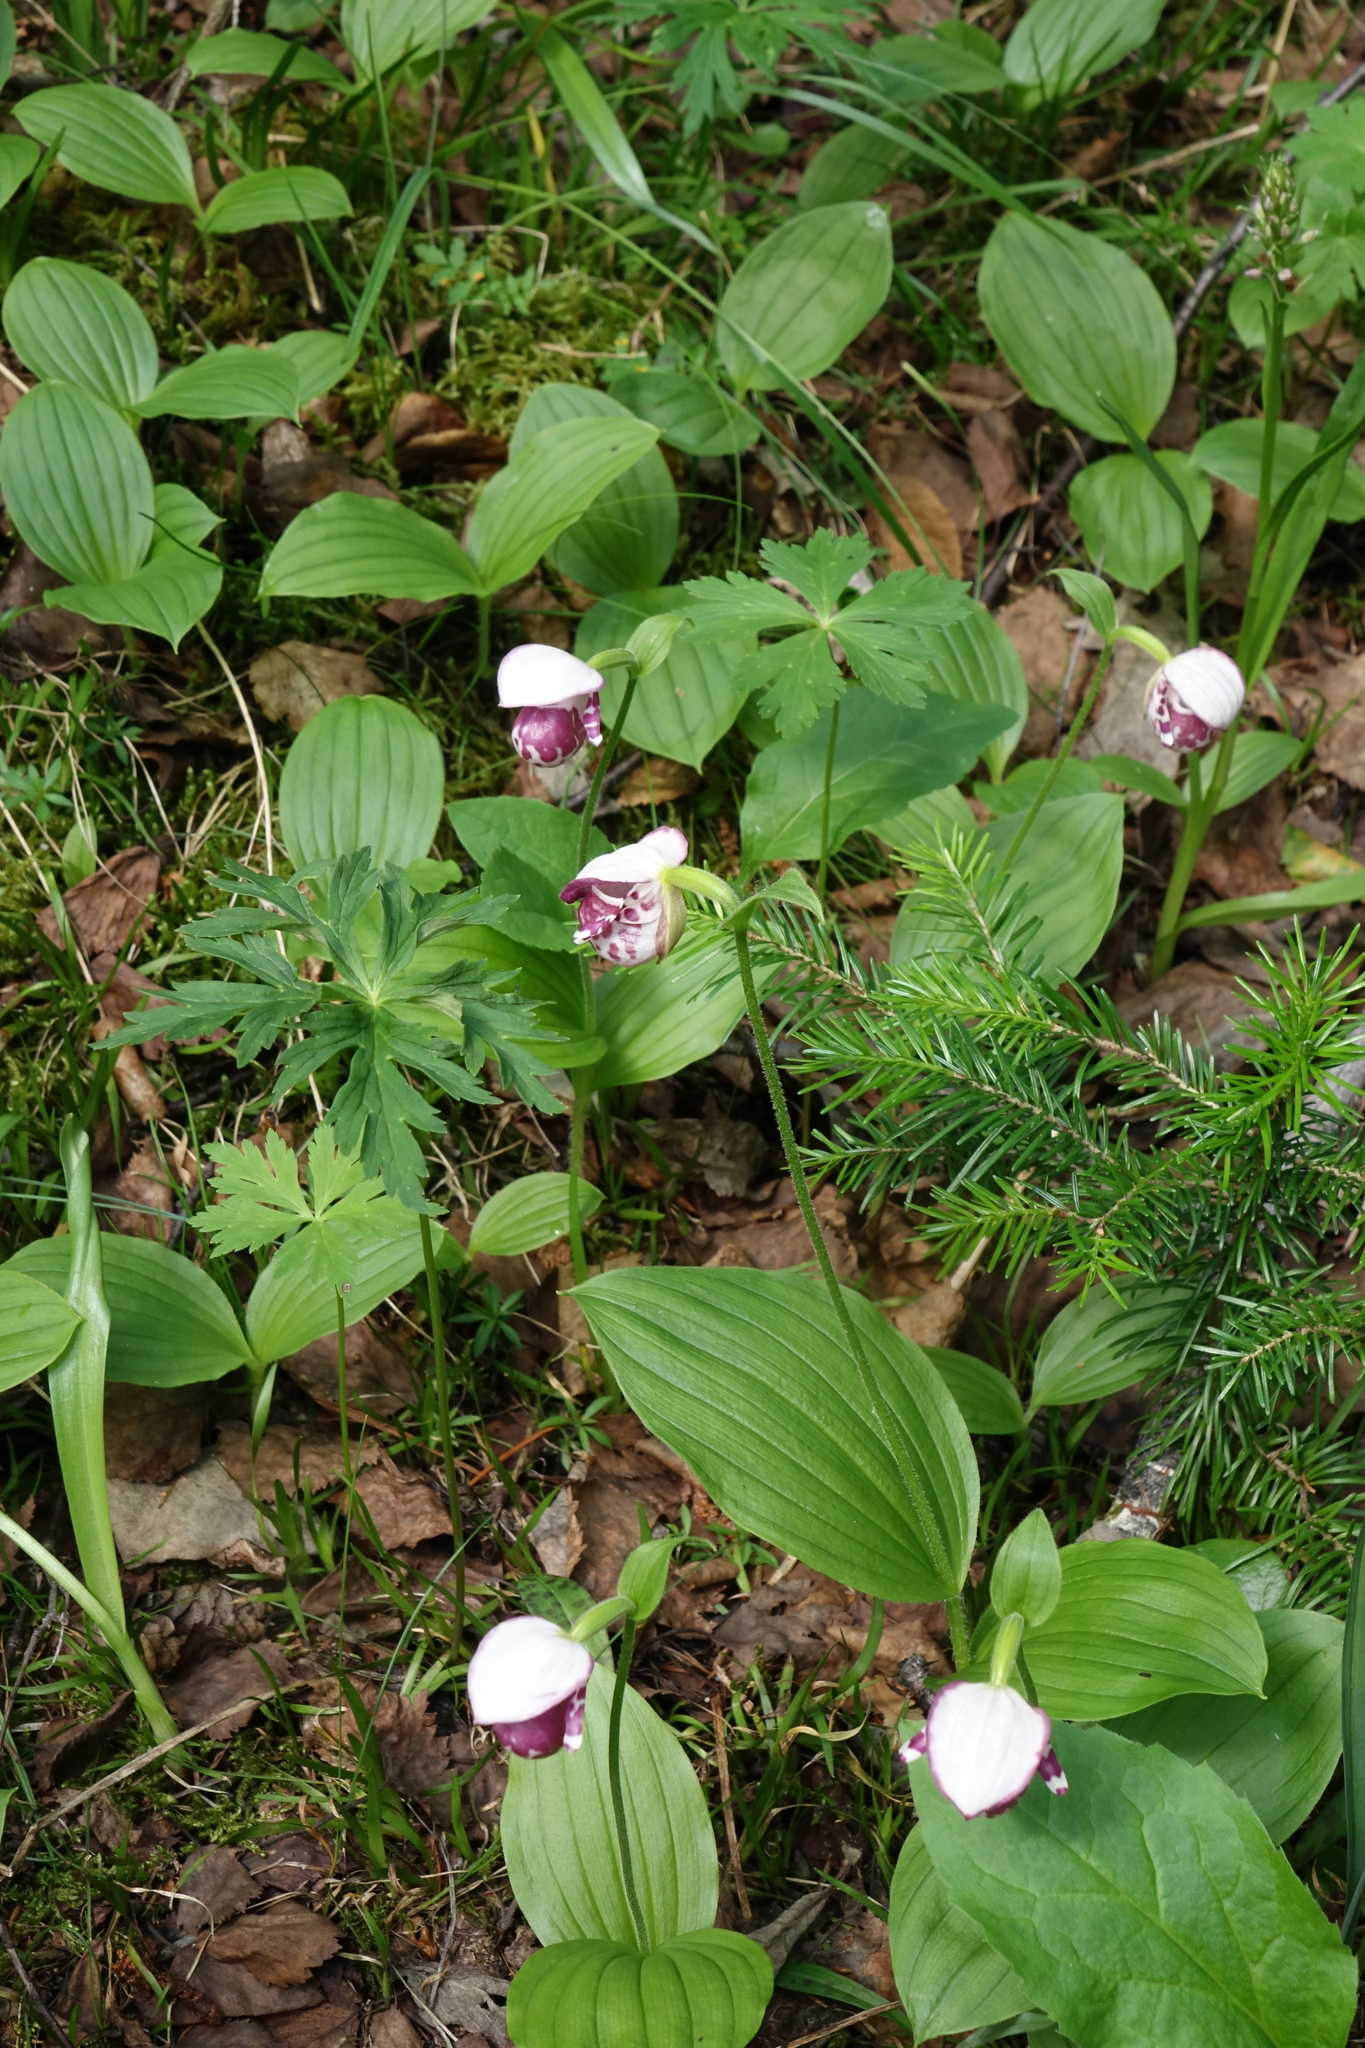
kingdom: Plantae
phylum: Tracheophyta
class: Liliopsida
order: Asparagales
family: Orchidaceae
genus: Cypripedium
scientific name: Cypripedium guttatum
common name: Pink lady slipper
